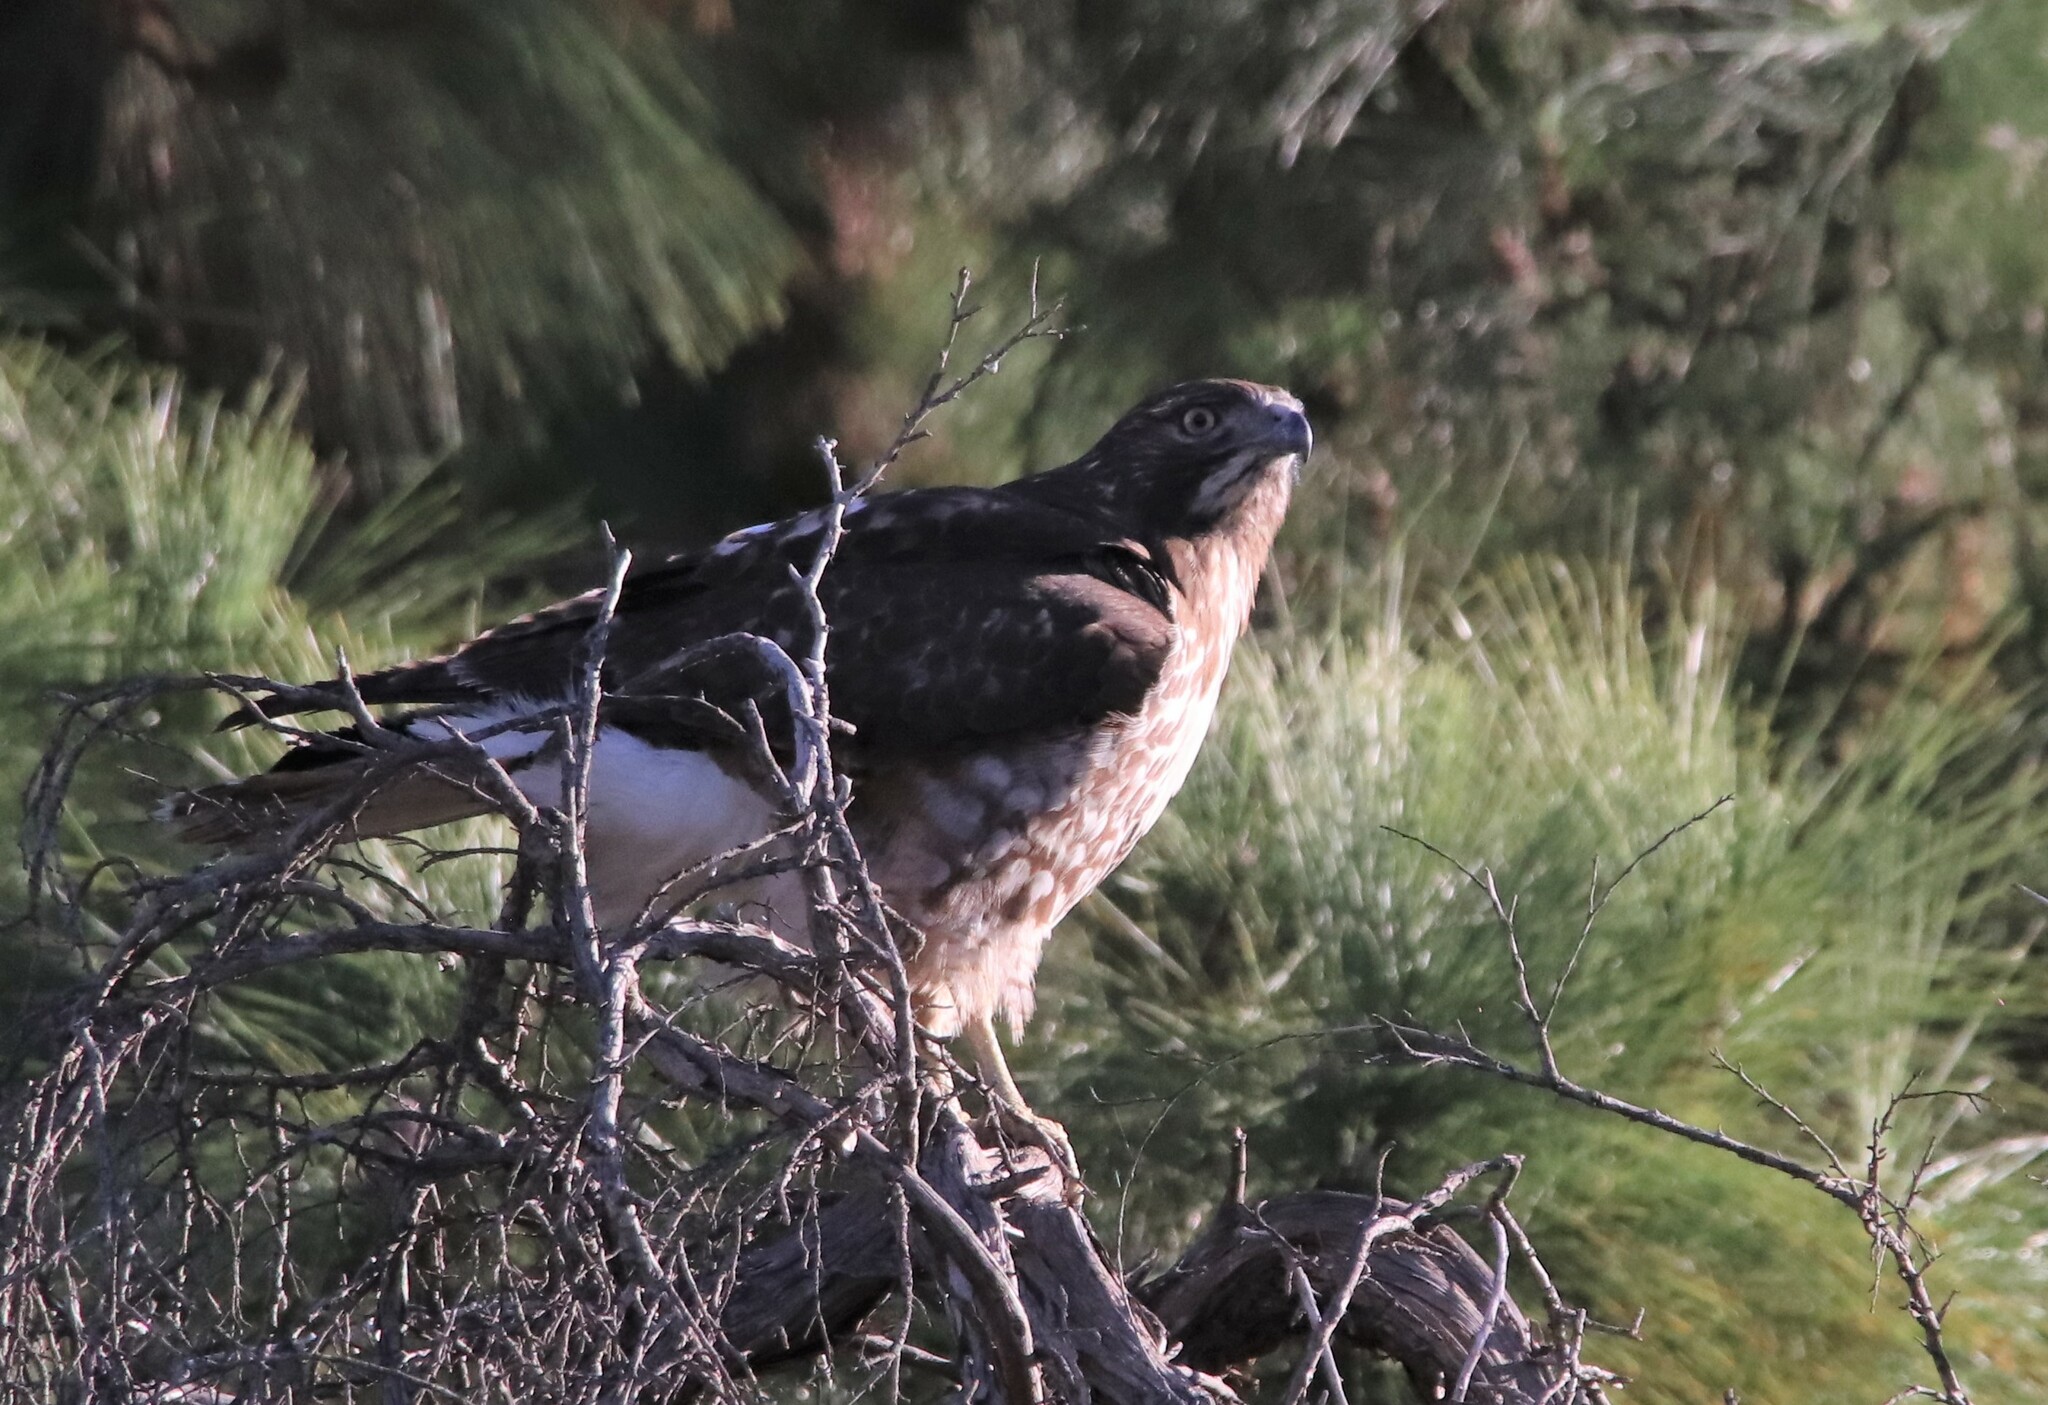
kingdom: Animalia
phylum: Chordata
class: Aves
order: Accipitriformes
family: Accipitridae
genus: Buteo
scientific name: Buteo jamaicensis
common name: Red-tailed hawk
